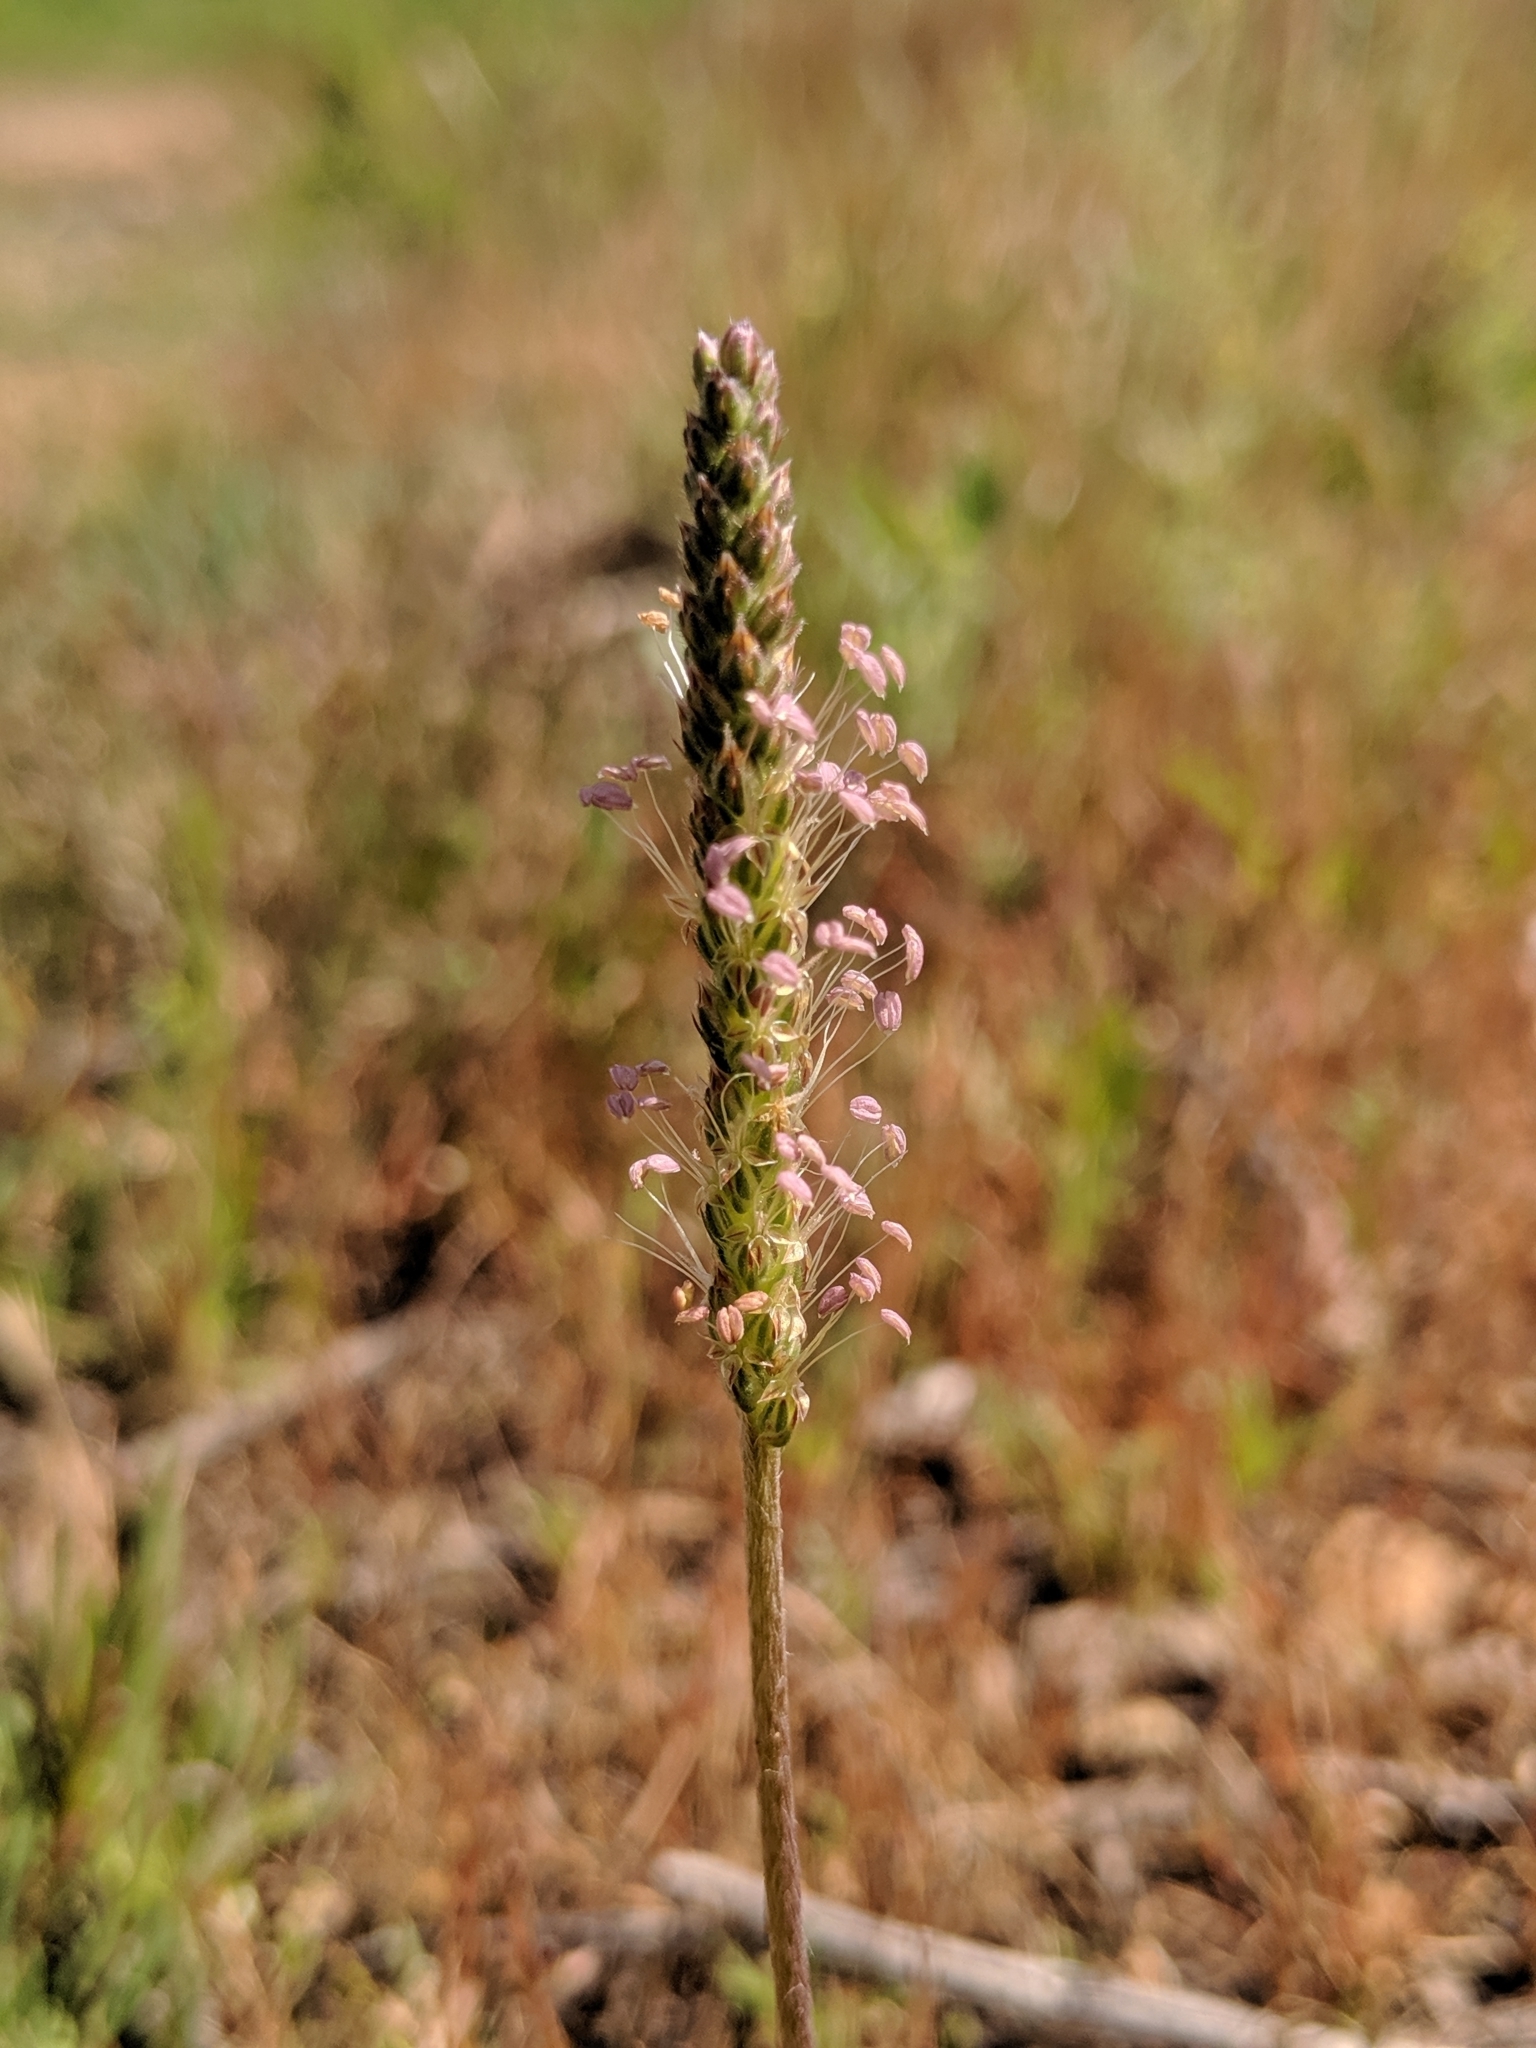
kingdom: Plantae
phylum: Tracheophyta
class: Magnoliopsida
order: Lamiales
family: Plantaginaceae
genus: Plantago
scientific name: Plantago coronopus
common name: Buck's-horn plantain
